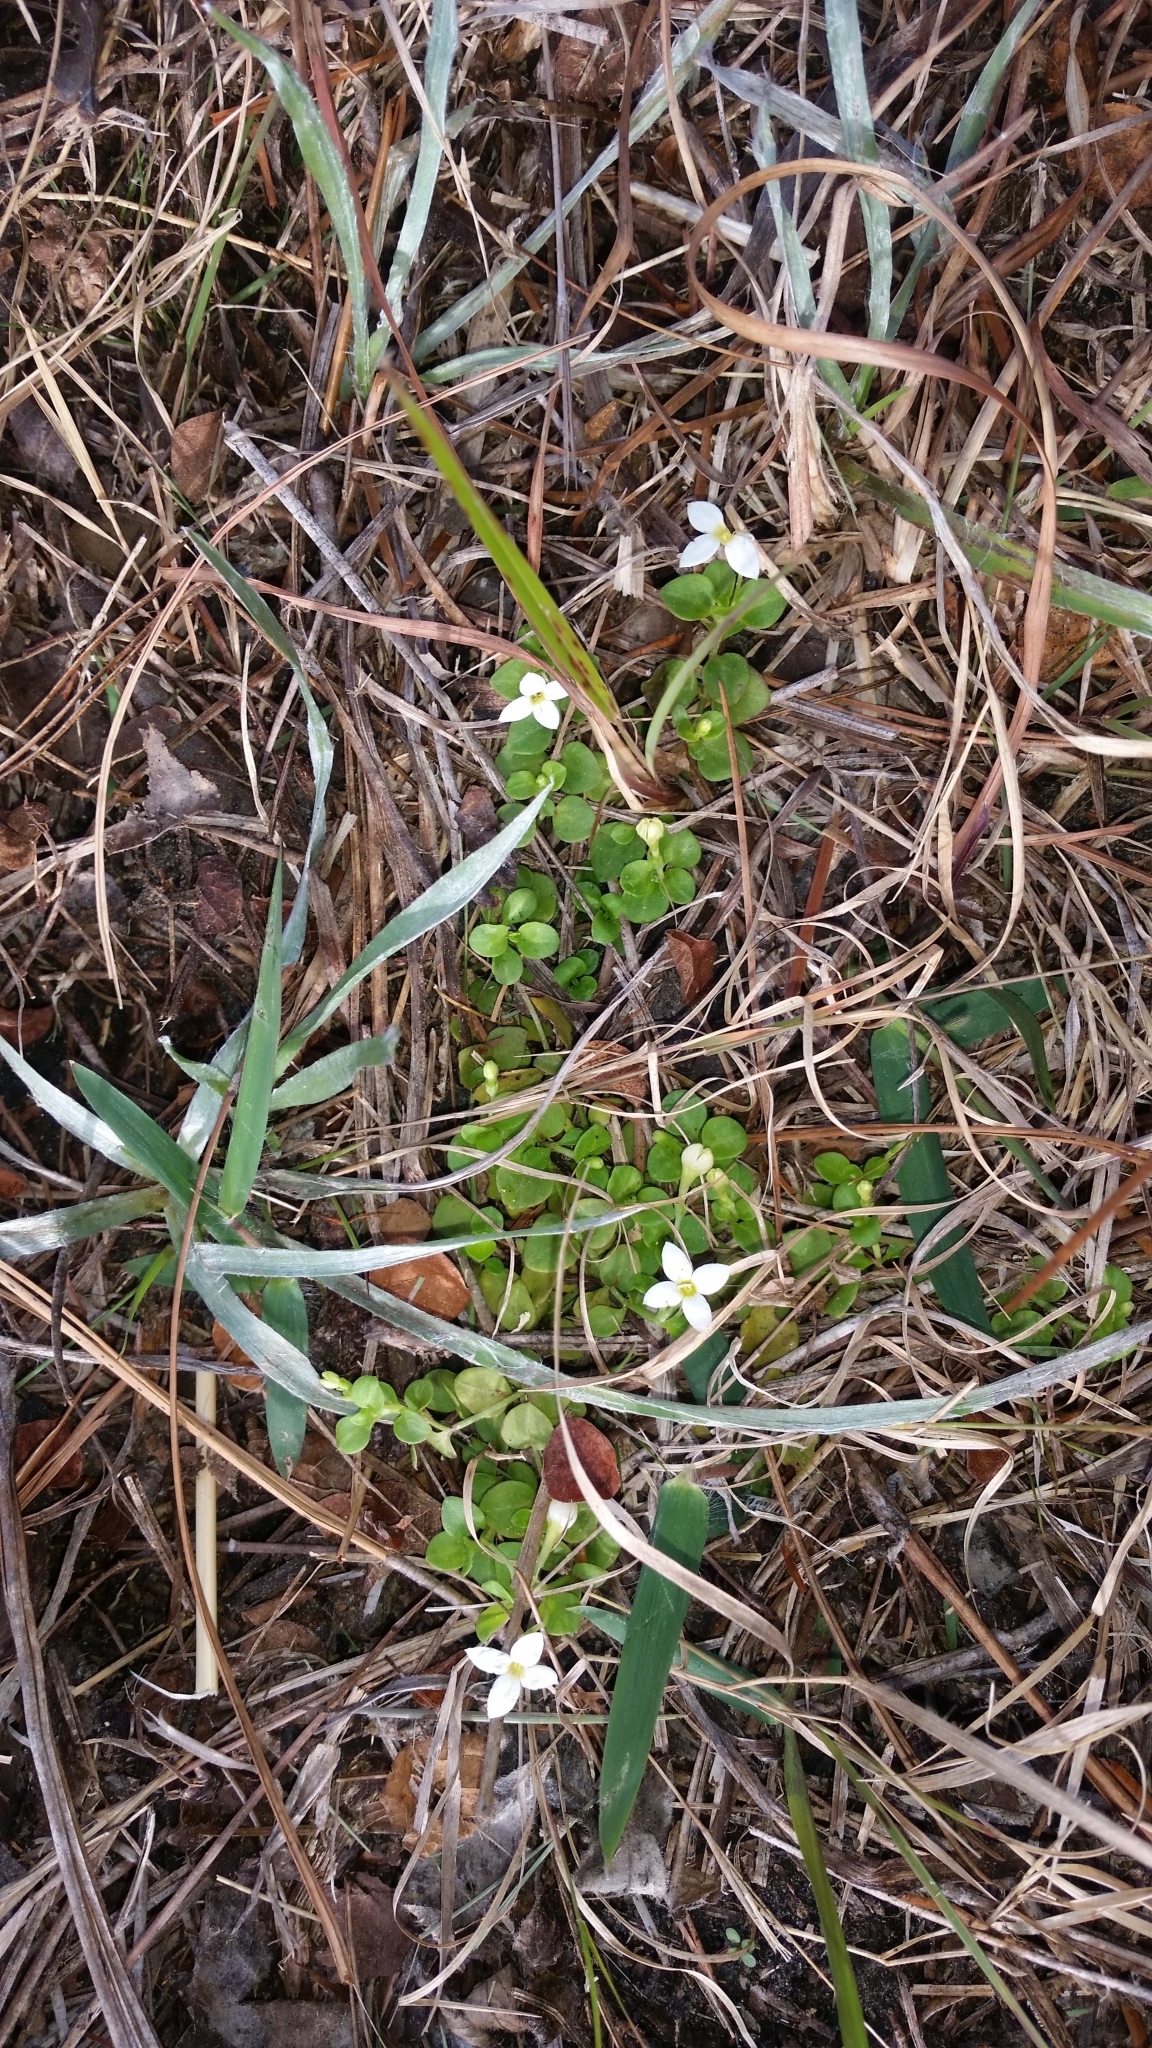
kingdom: Plantae
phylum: Tracheophyta
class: Magnoliopsida
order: Gentianales
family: Rubiaceae
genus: Houstonia
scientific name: Houstonia procumbens
